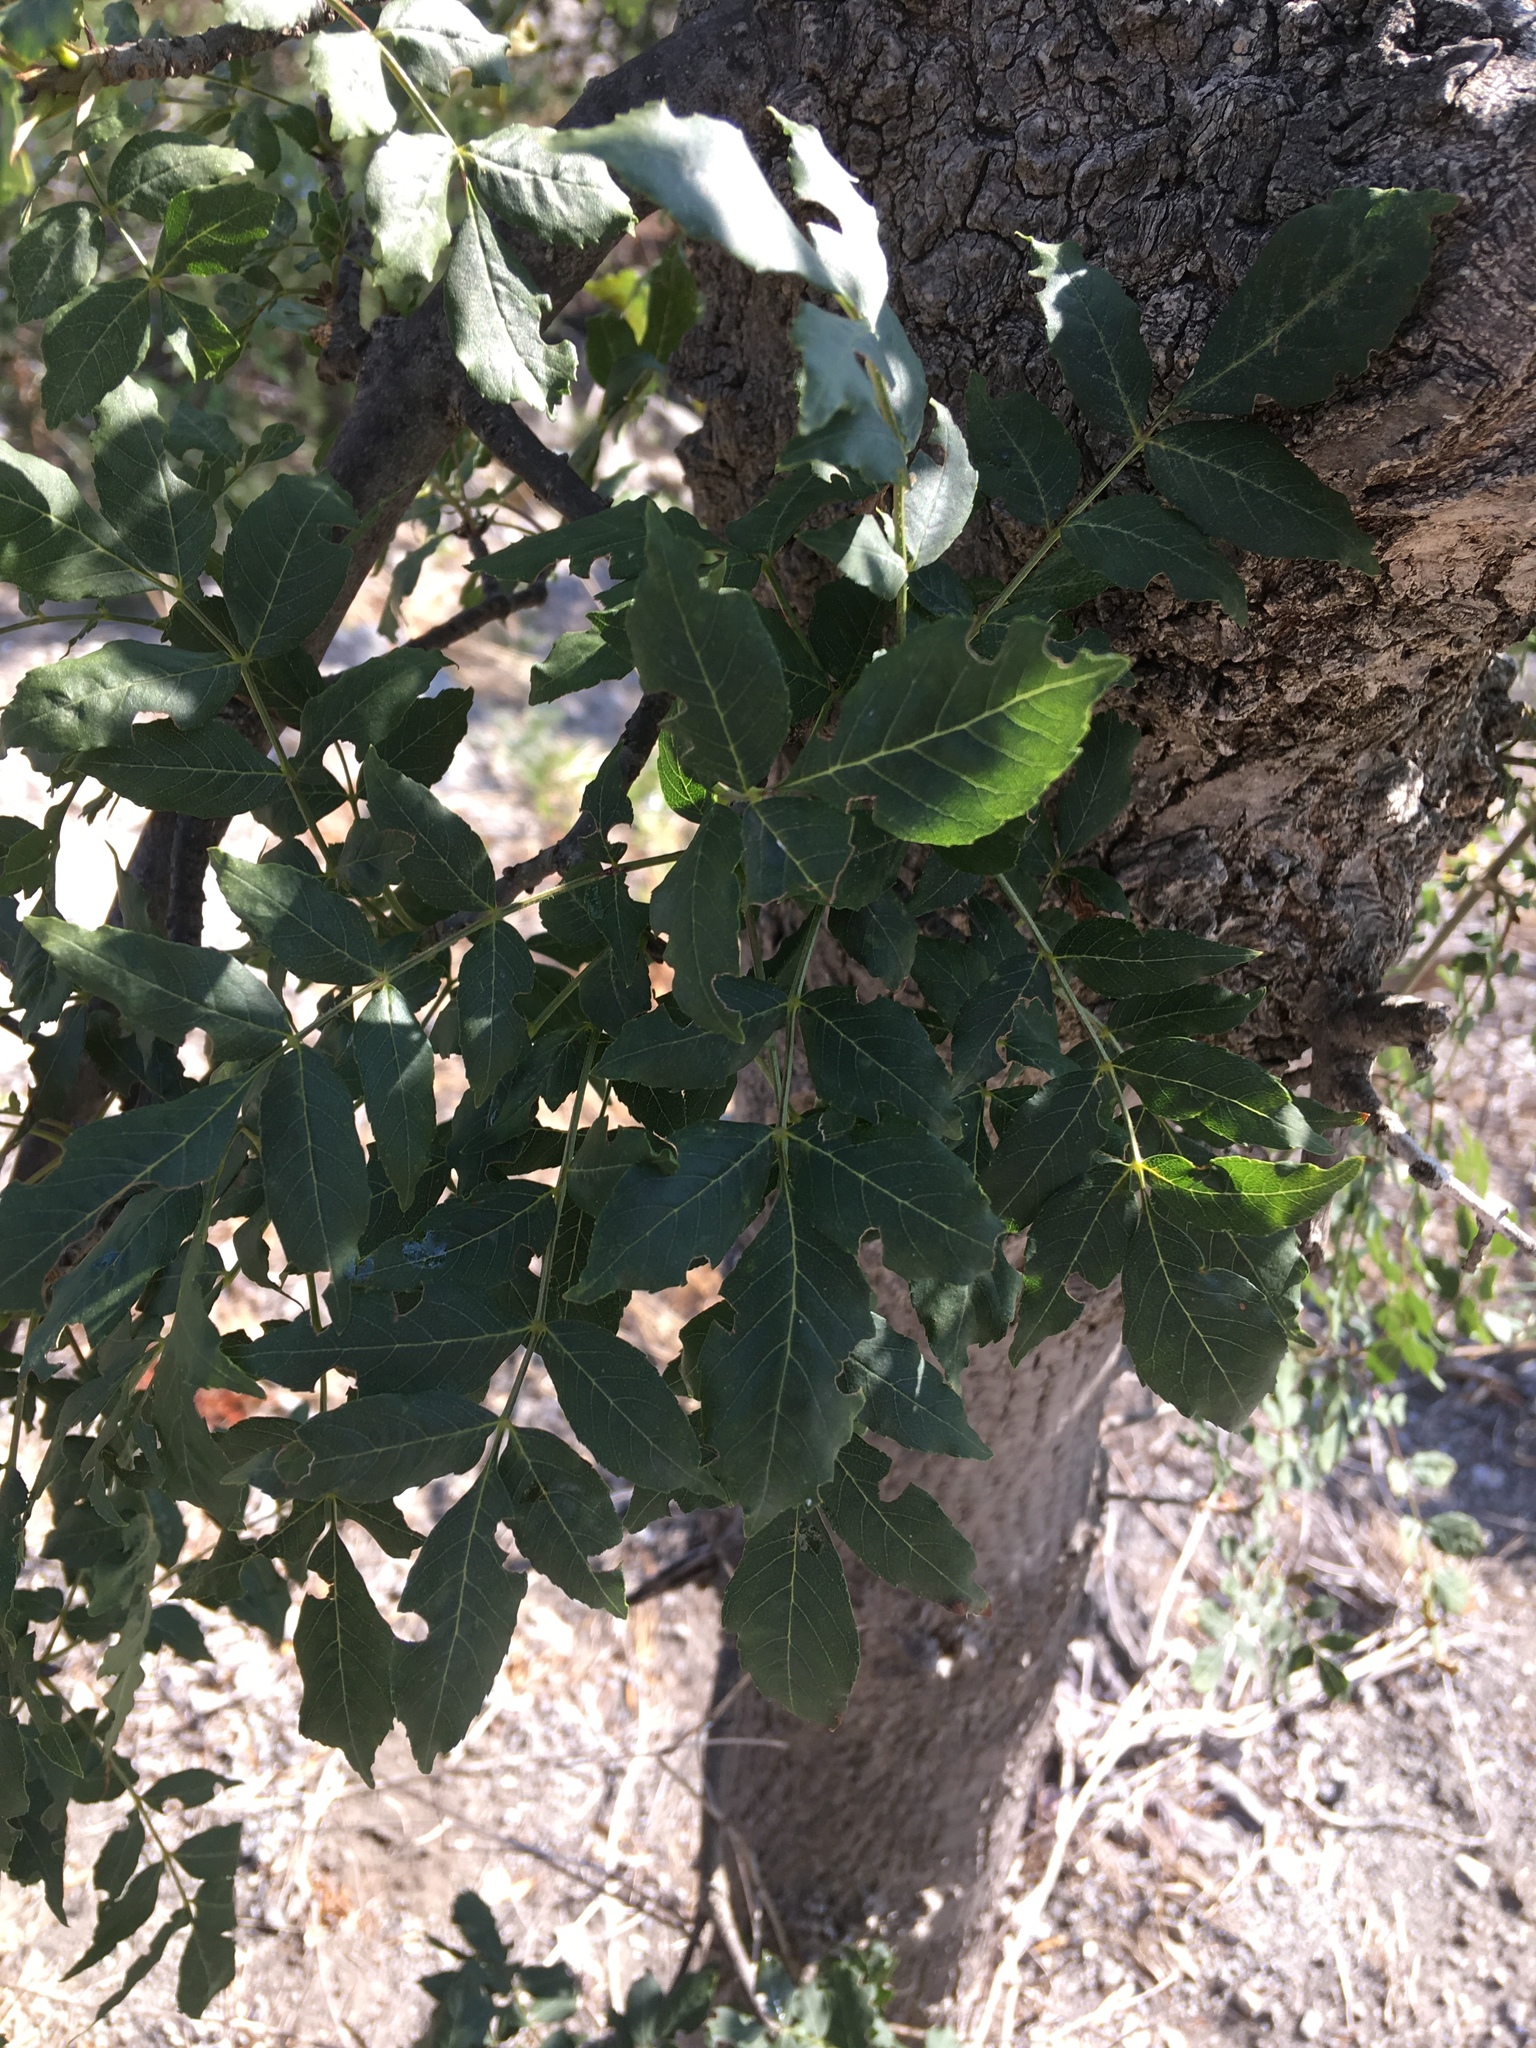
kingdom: Plantae
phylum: Tracheophyta
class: Magnoliopsida
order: Lamiales
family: Oleaceae
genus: Fraxinus
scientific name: Fraxinus angustifolia
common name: Narrow-leafed ash
